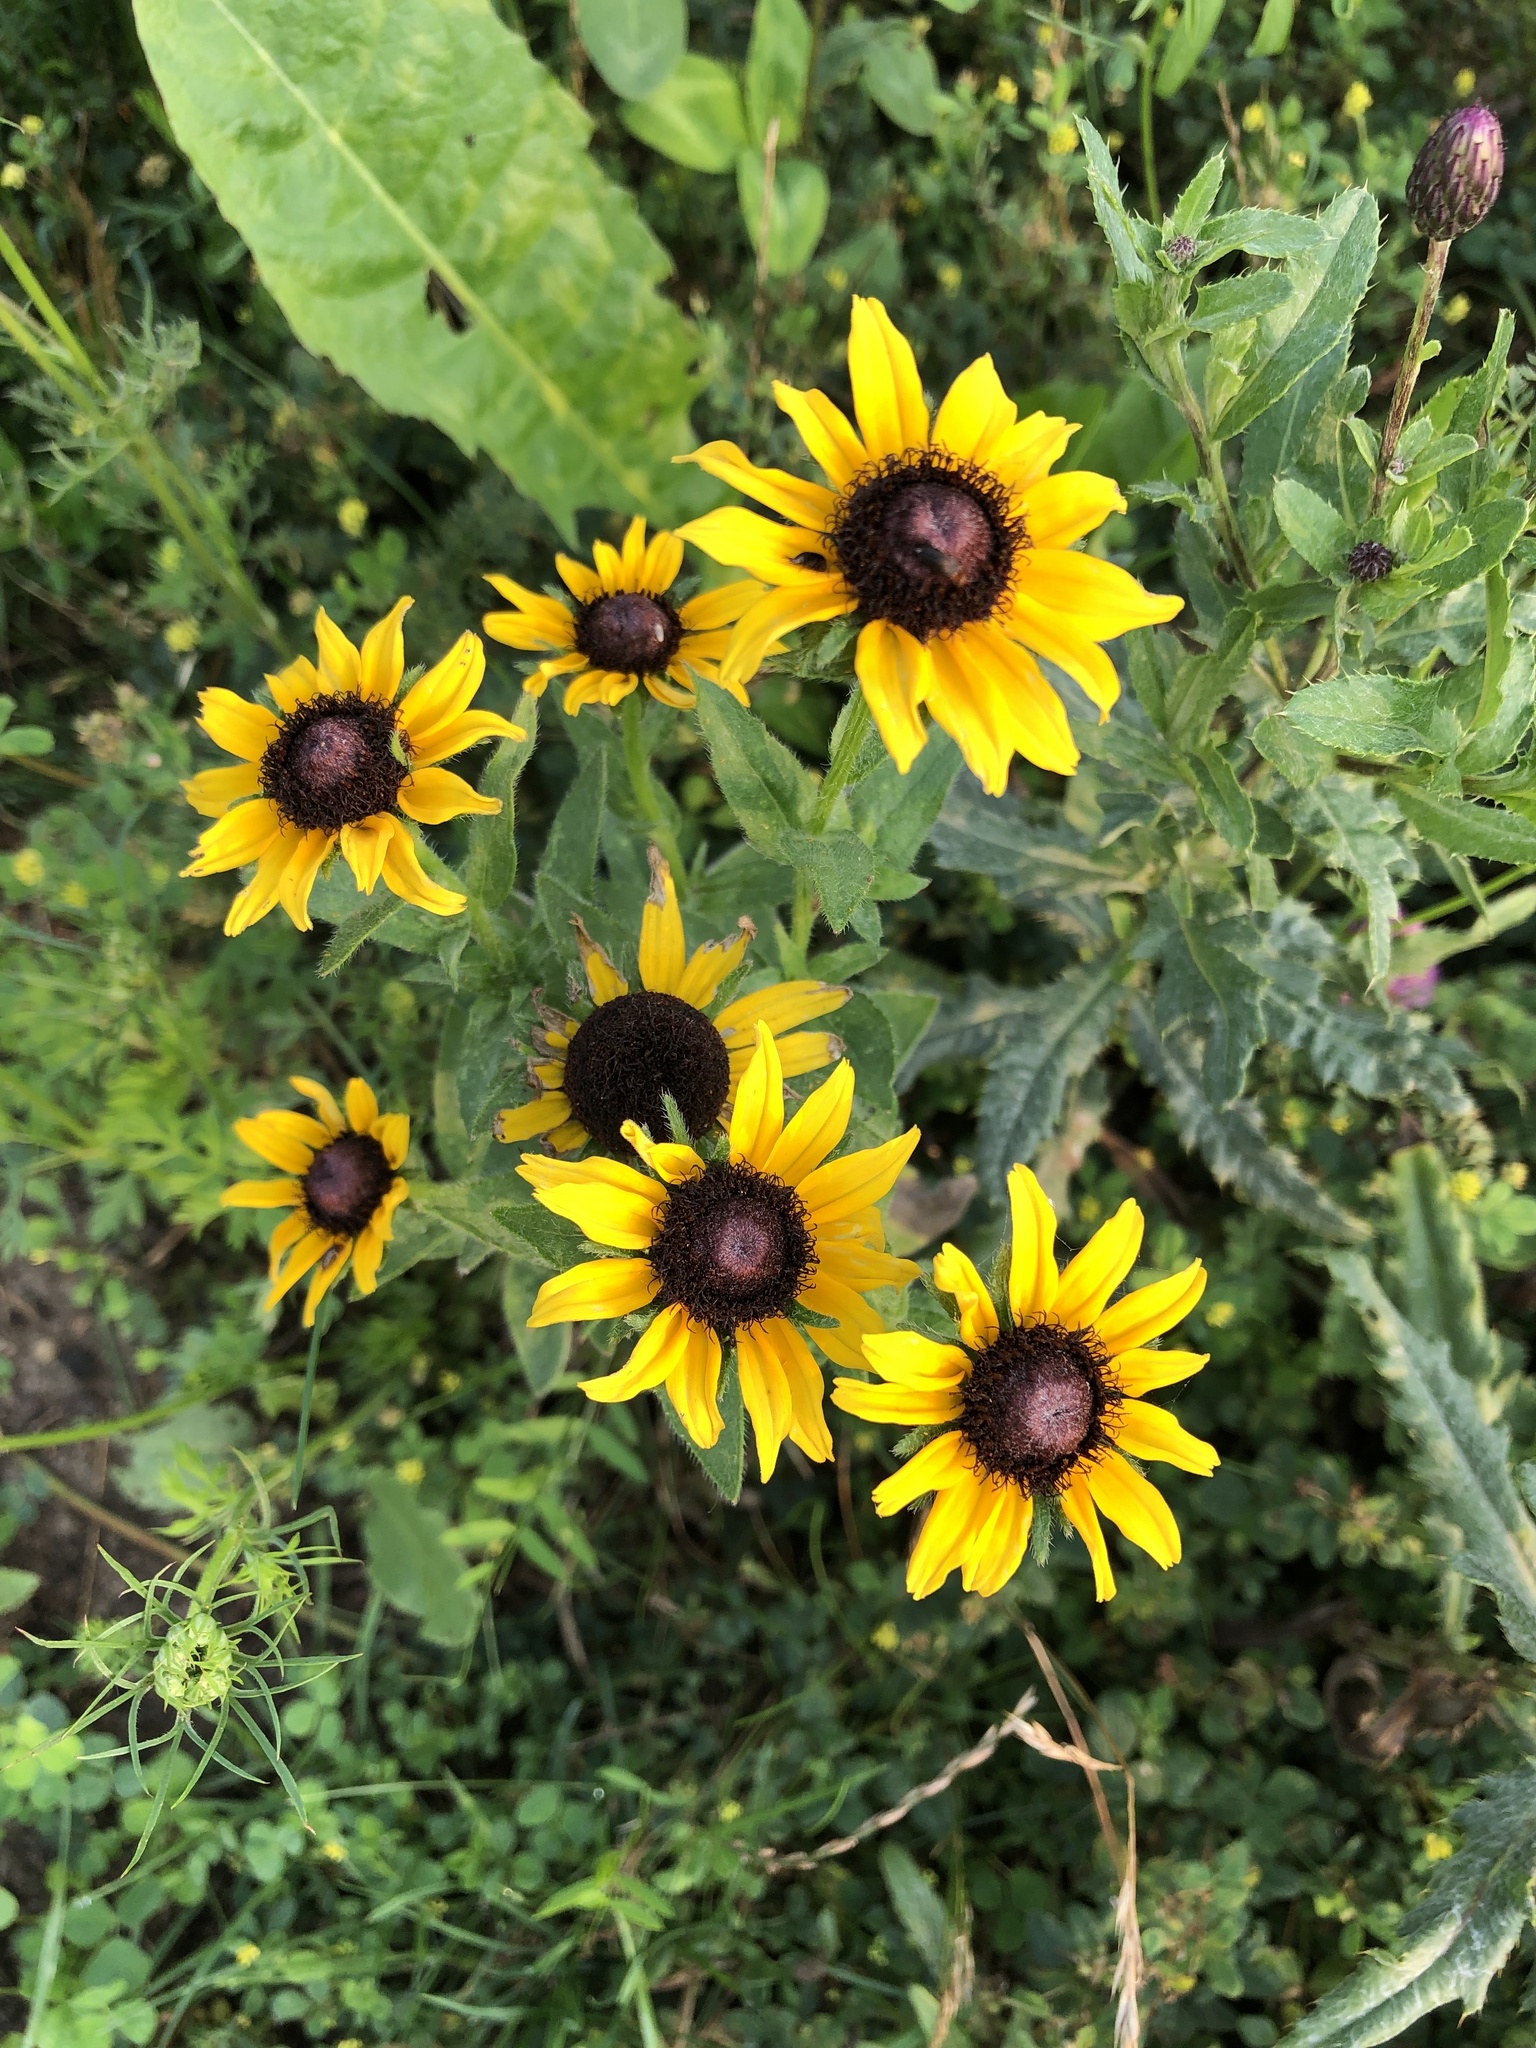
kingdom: Plantae
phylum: Tracheophyta
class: Magnoliopsida
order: Asterales
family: Asteraceae
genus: Rudbeckia
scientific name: Rudbeckia hirta
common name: Black-eyed-susan
